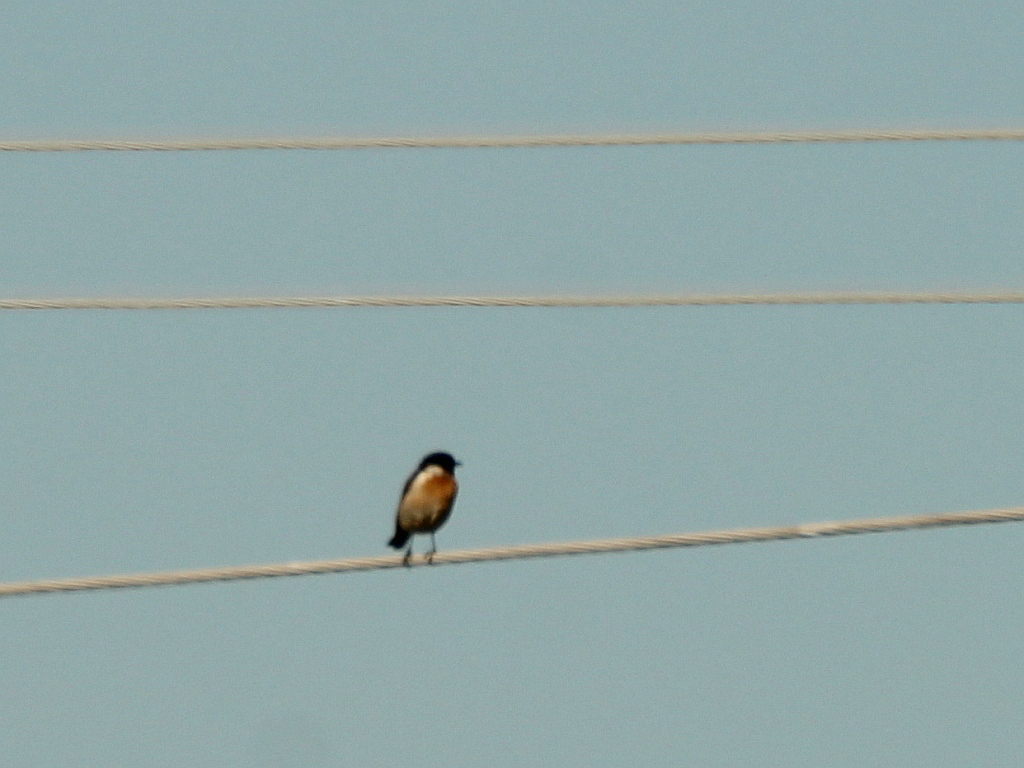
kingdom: Animalia
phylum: Chordata
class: Aves
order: Passeriformes
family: Muscicapidae
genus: Saxicola
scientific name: Saxicola rubicola
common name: European stonechat
